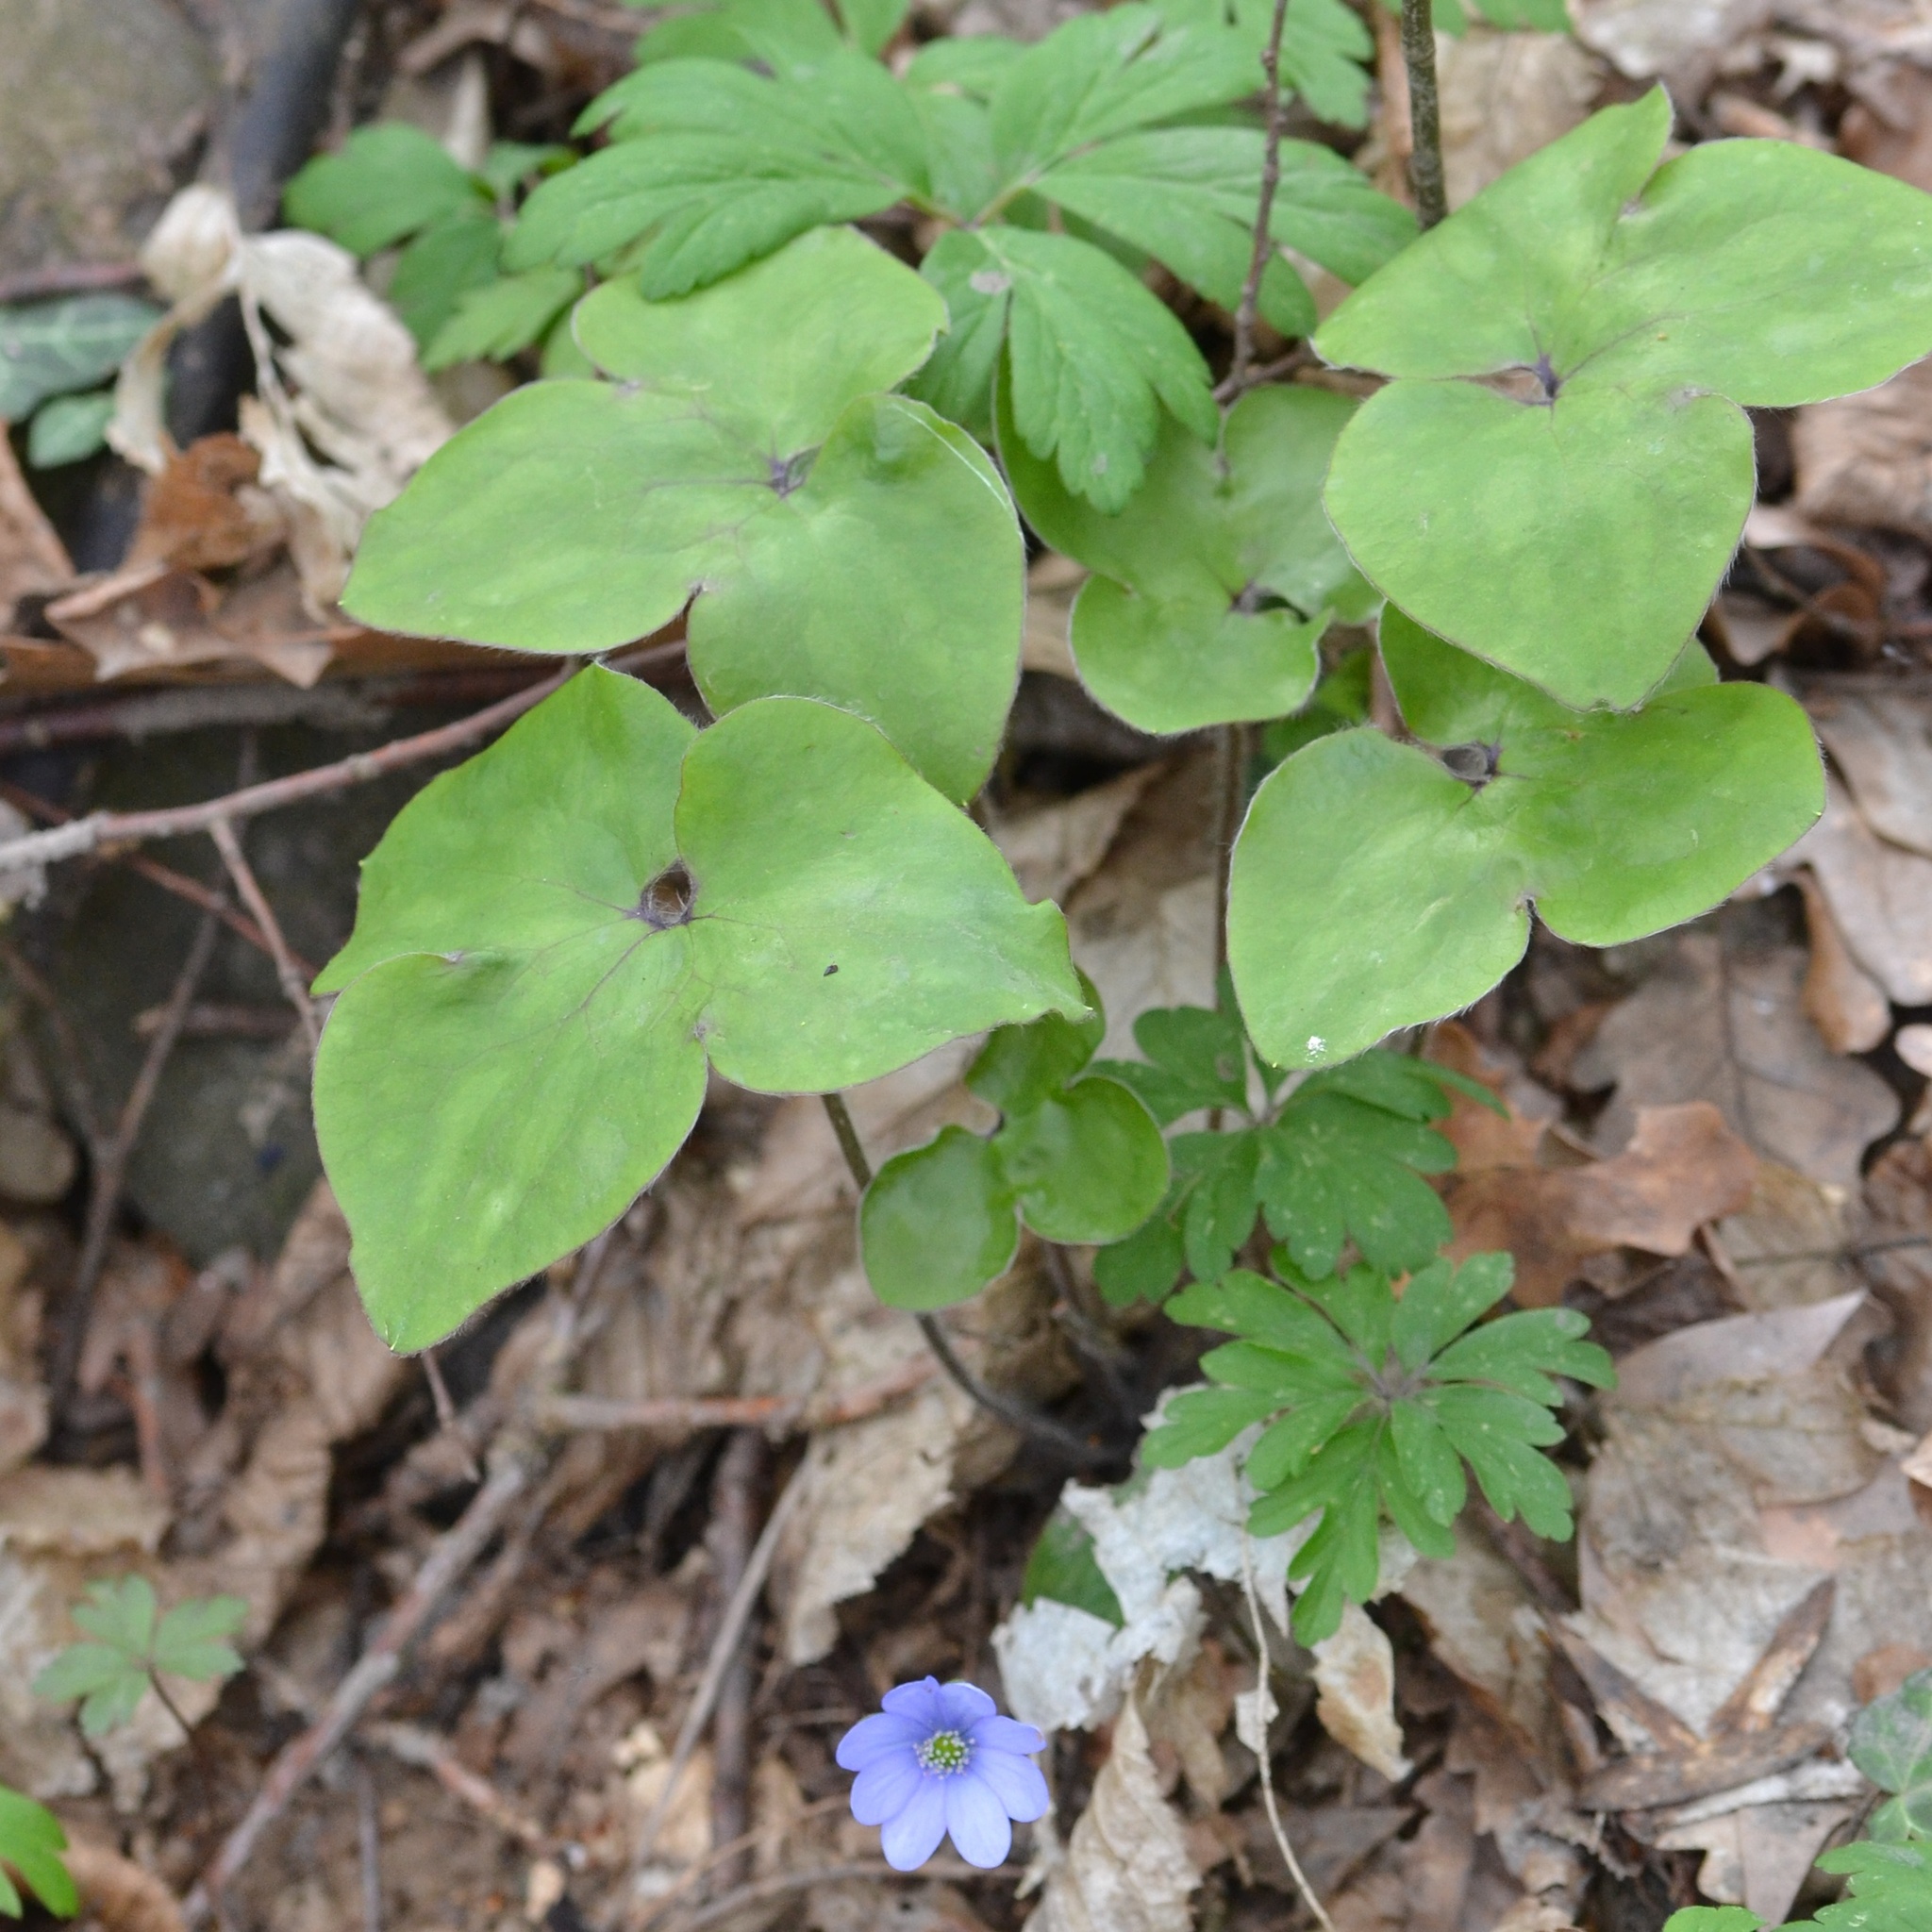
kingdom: Plantae
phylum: Tracheophyta
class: Magnoliopsida
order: Ranunculales
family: Ranunculaceae
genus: Hepatica
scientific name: Hepatica nobilis
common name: Liverleaf
